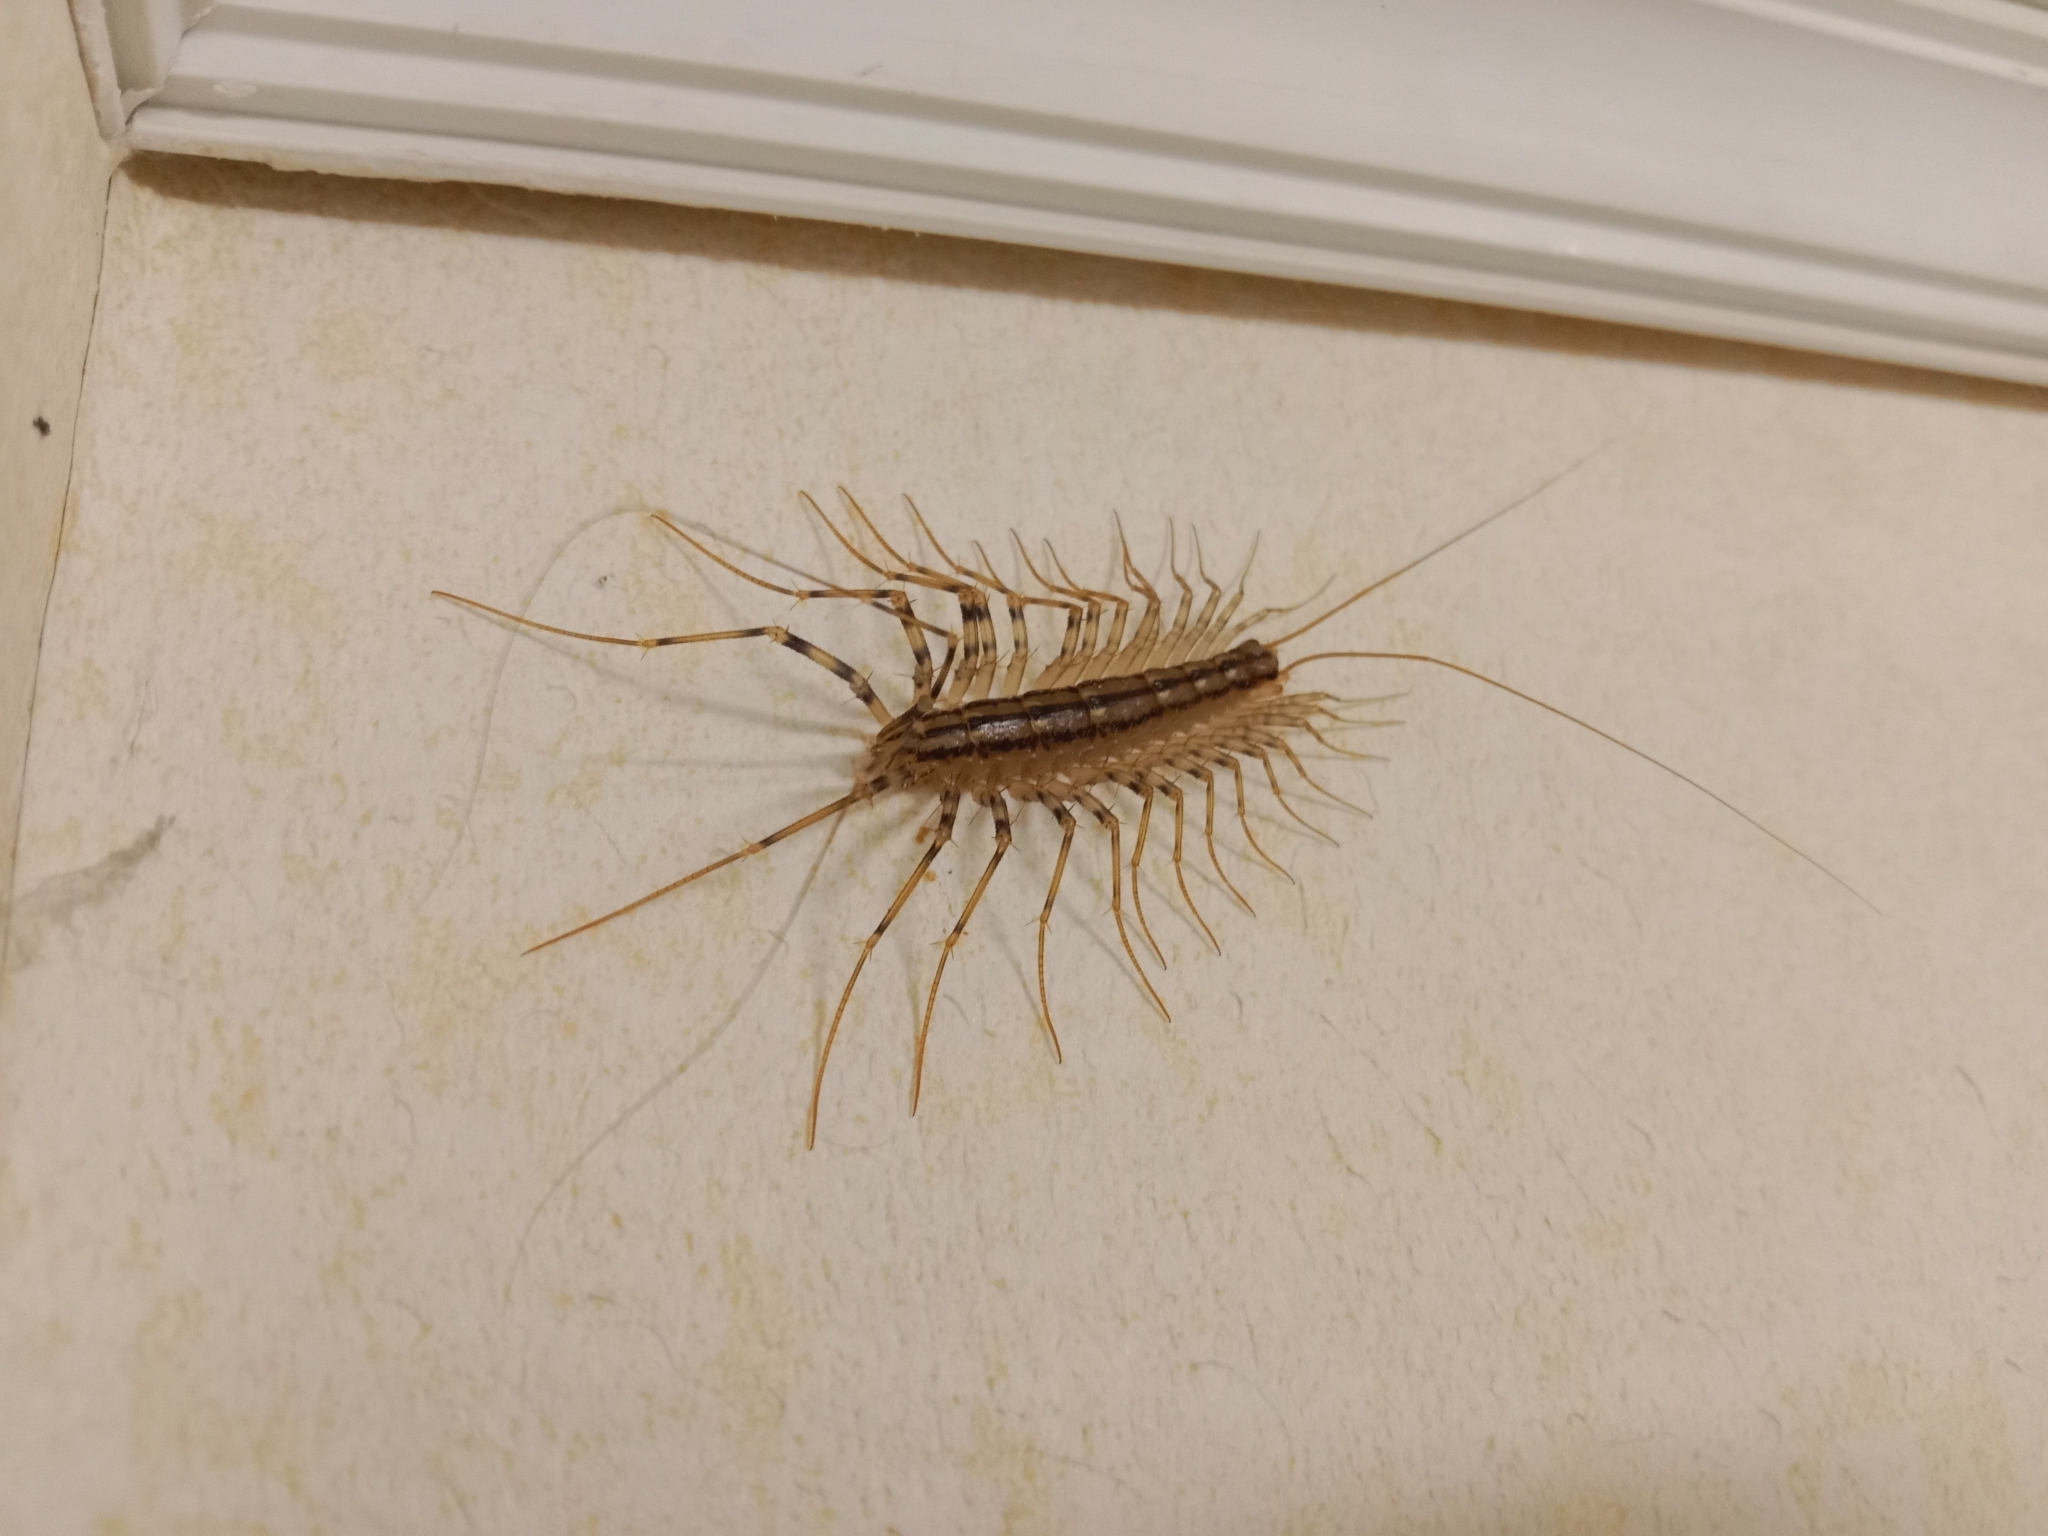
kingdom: Animalia
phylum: Arthropoda
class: Chilopoda
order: Scutigeromorpha
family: Scutigeridae
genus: Scutigera
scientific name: Scutigera coleoptrata
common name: House centipede
